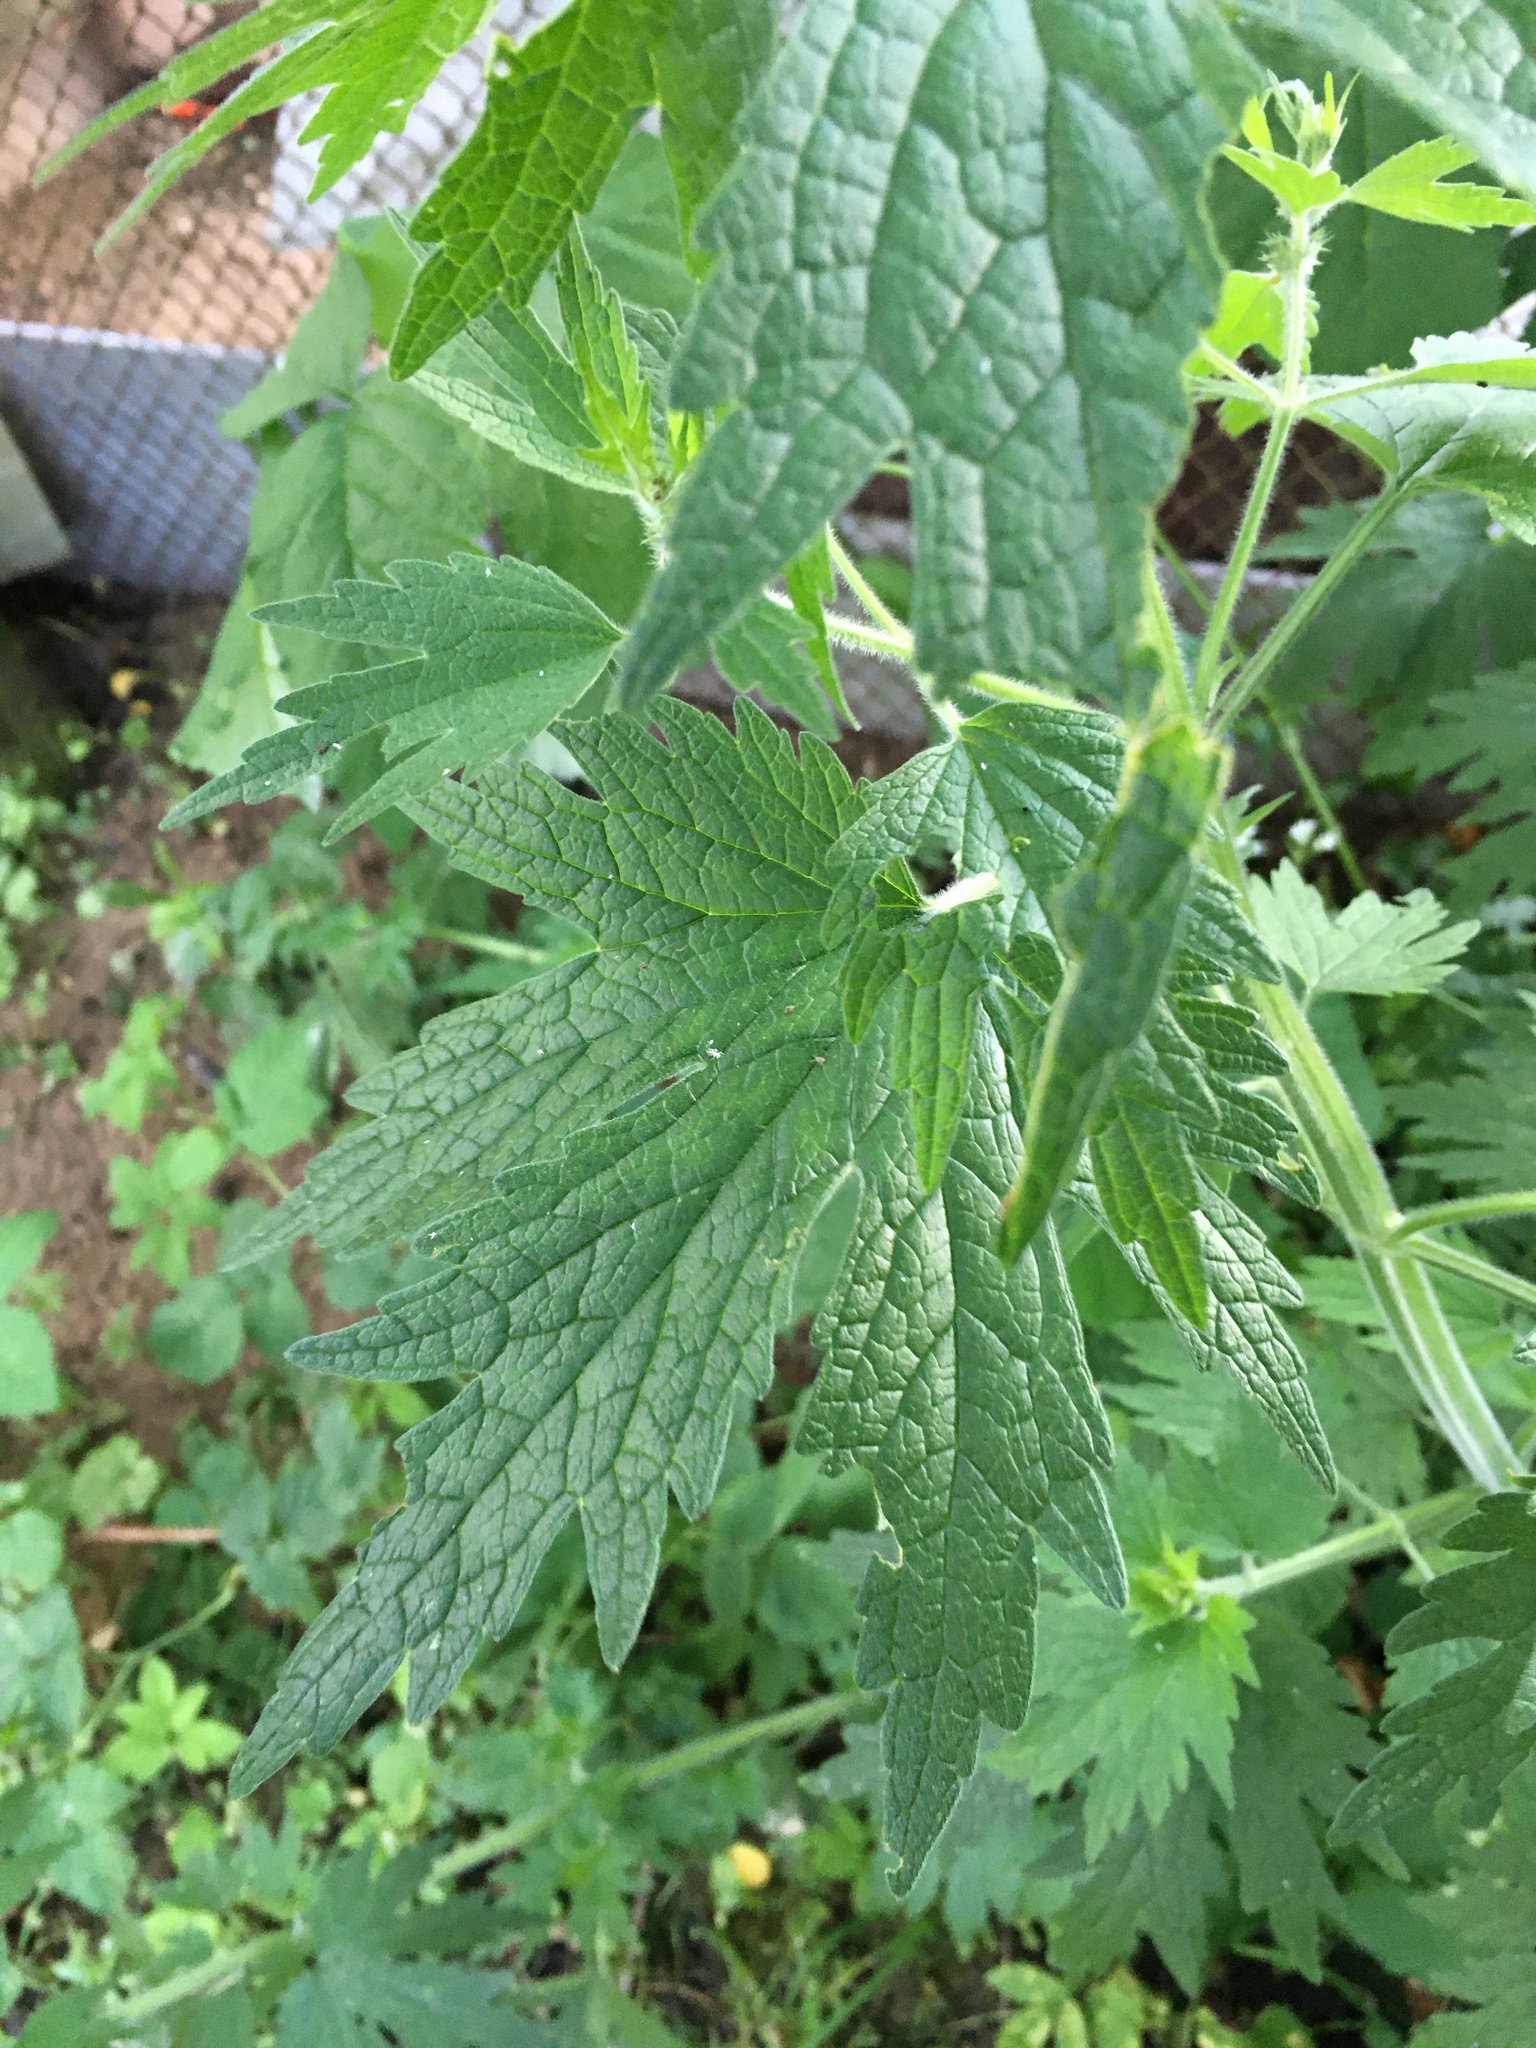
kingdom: Plantae
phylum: Tracheophyta
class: Magnoliopsida
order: Lamiales
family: Lamiaceae
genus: Leonurus
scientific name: Leonurus quinquelobatus
